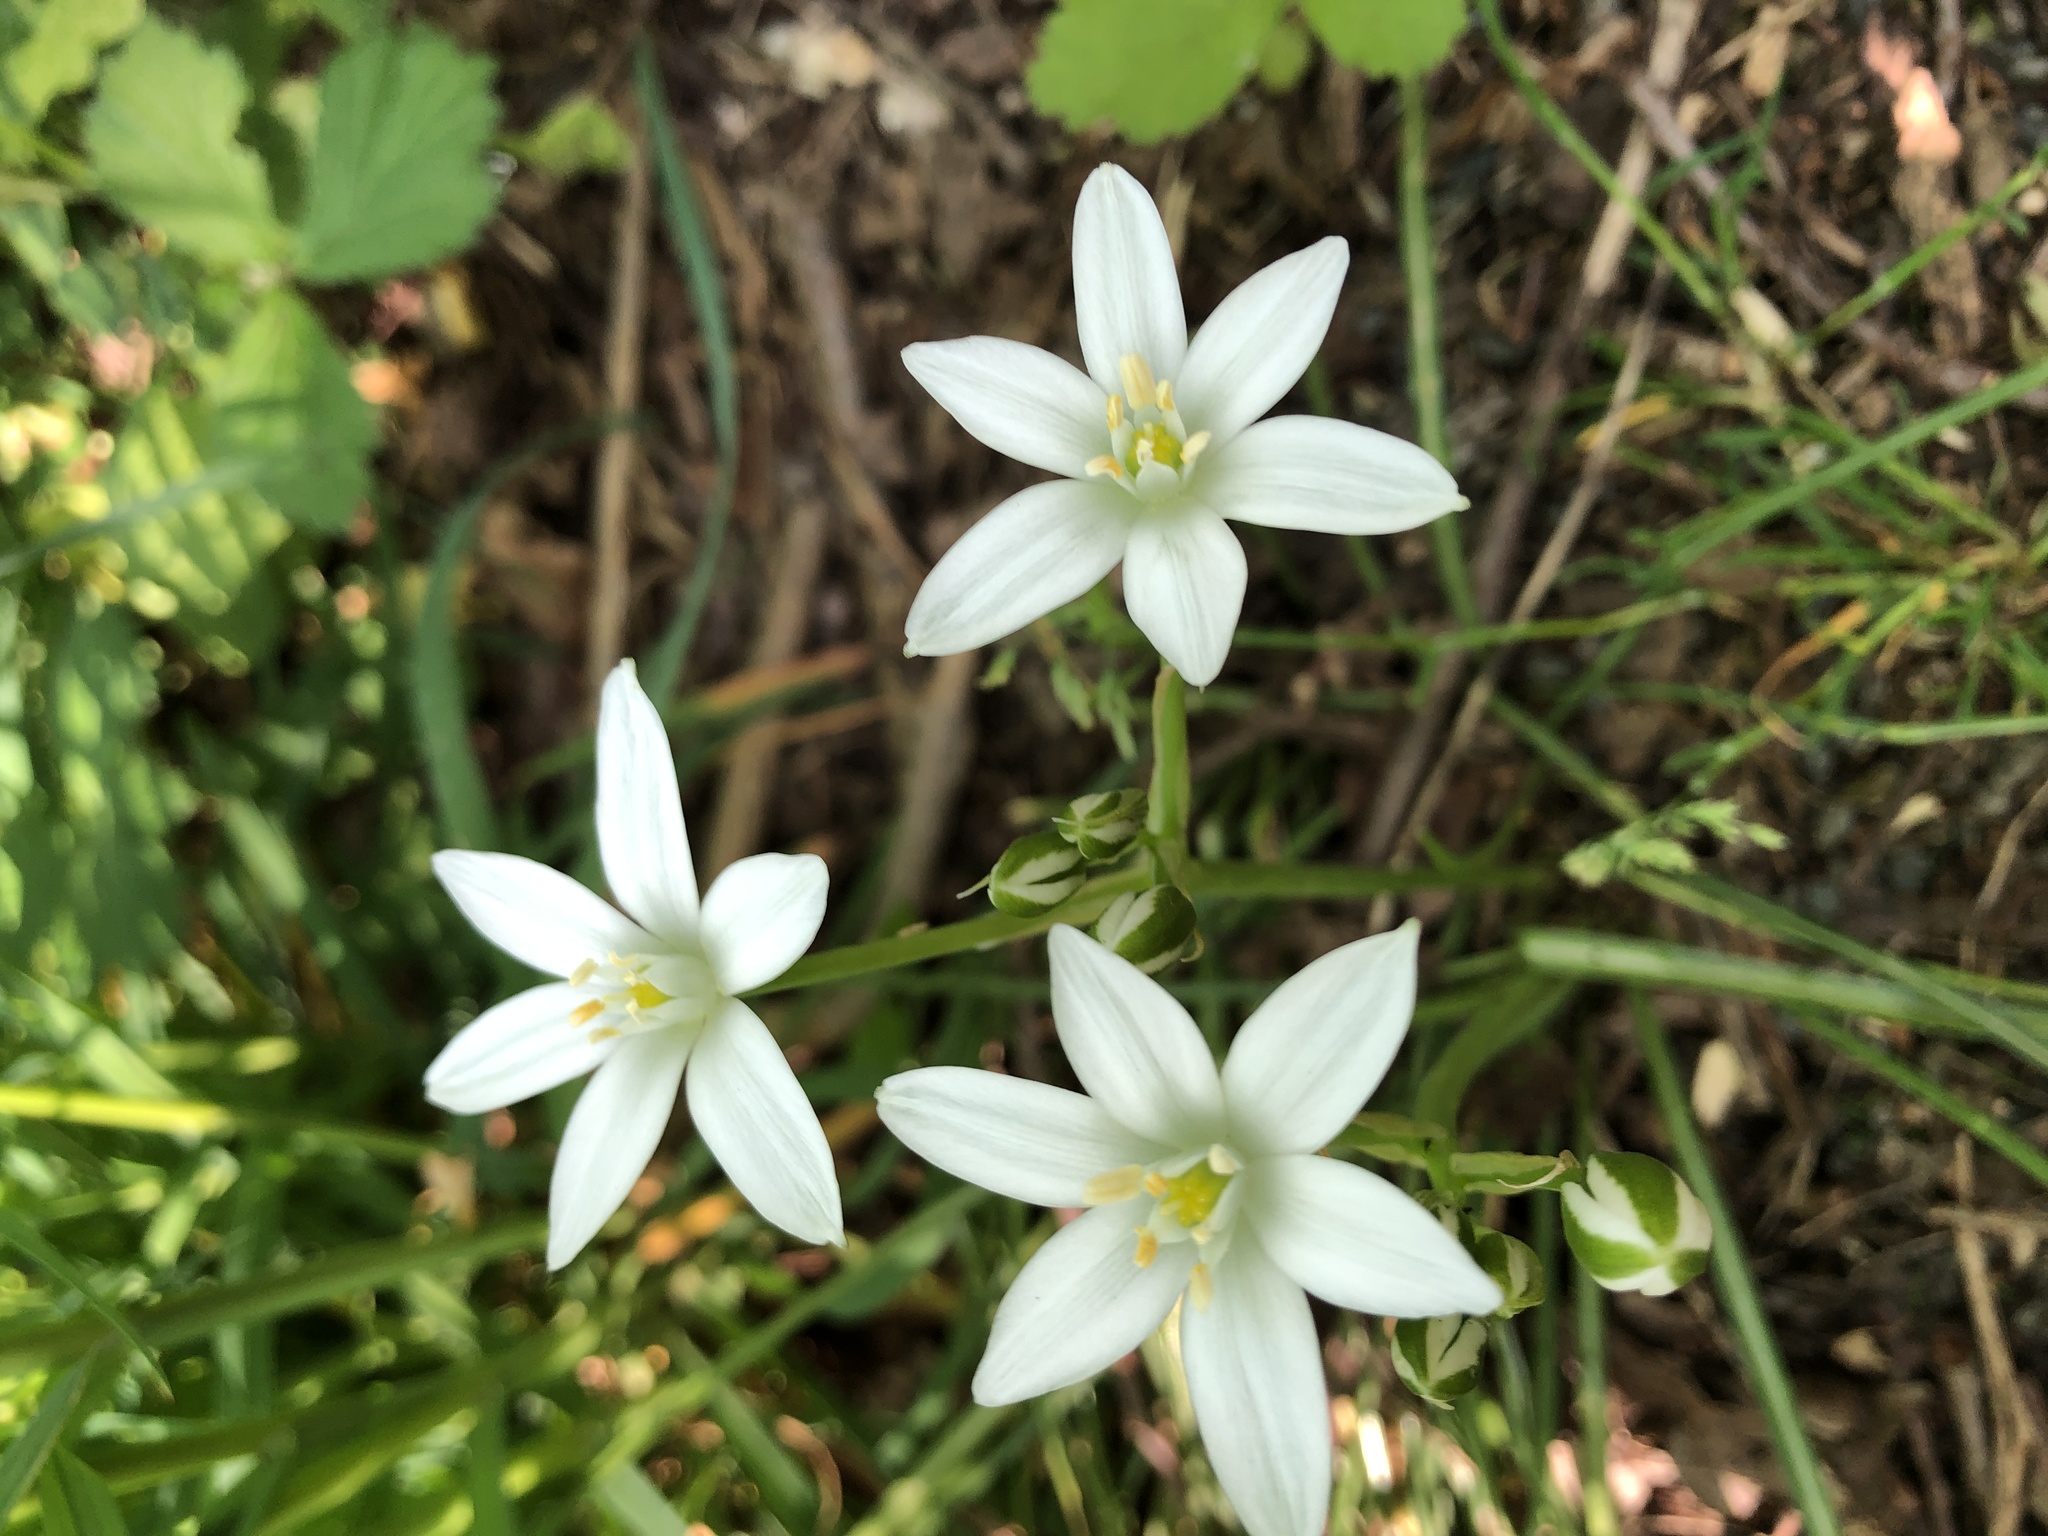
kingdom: Plantae
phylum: Tracheophyta
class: Liliopsida
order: Asparagales
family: Asparagaceae
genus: Ornithogalum
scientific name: Ornithogalum umbellatum
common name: Garden star-of-bethlehem
